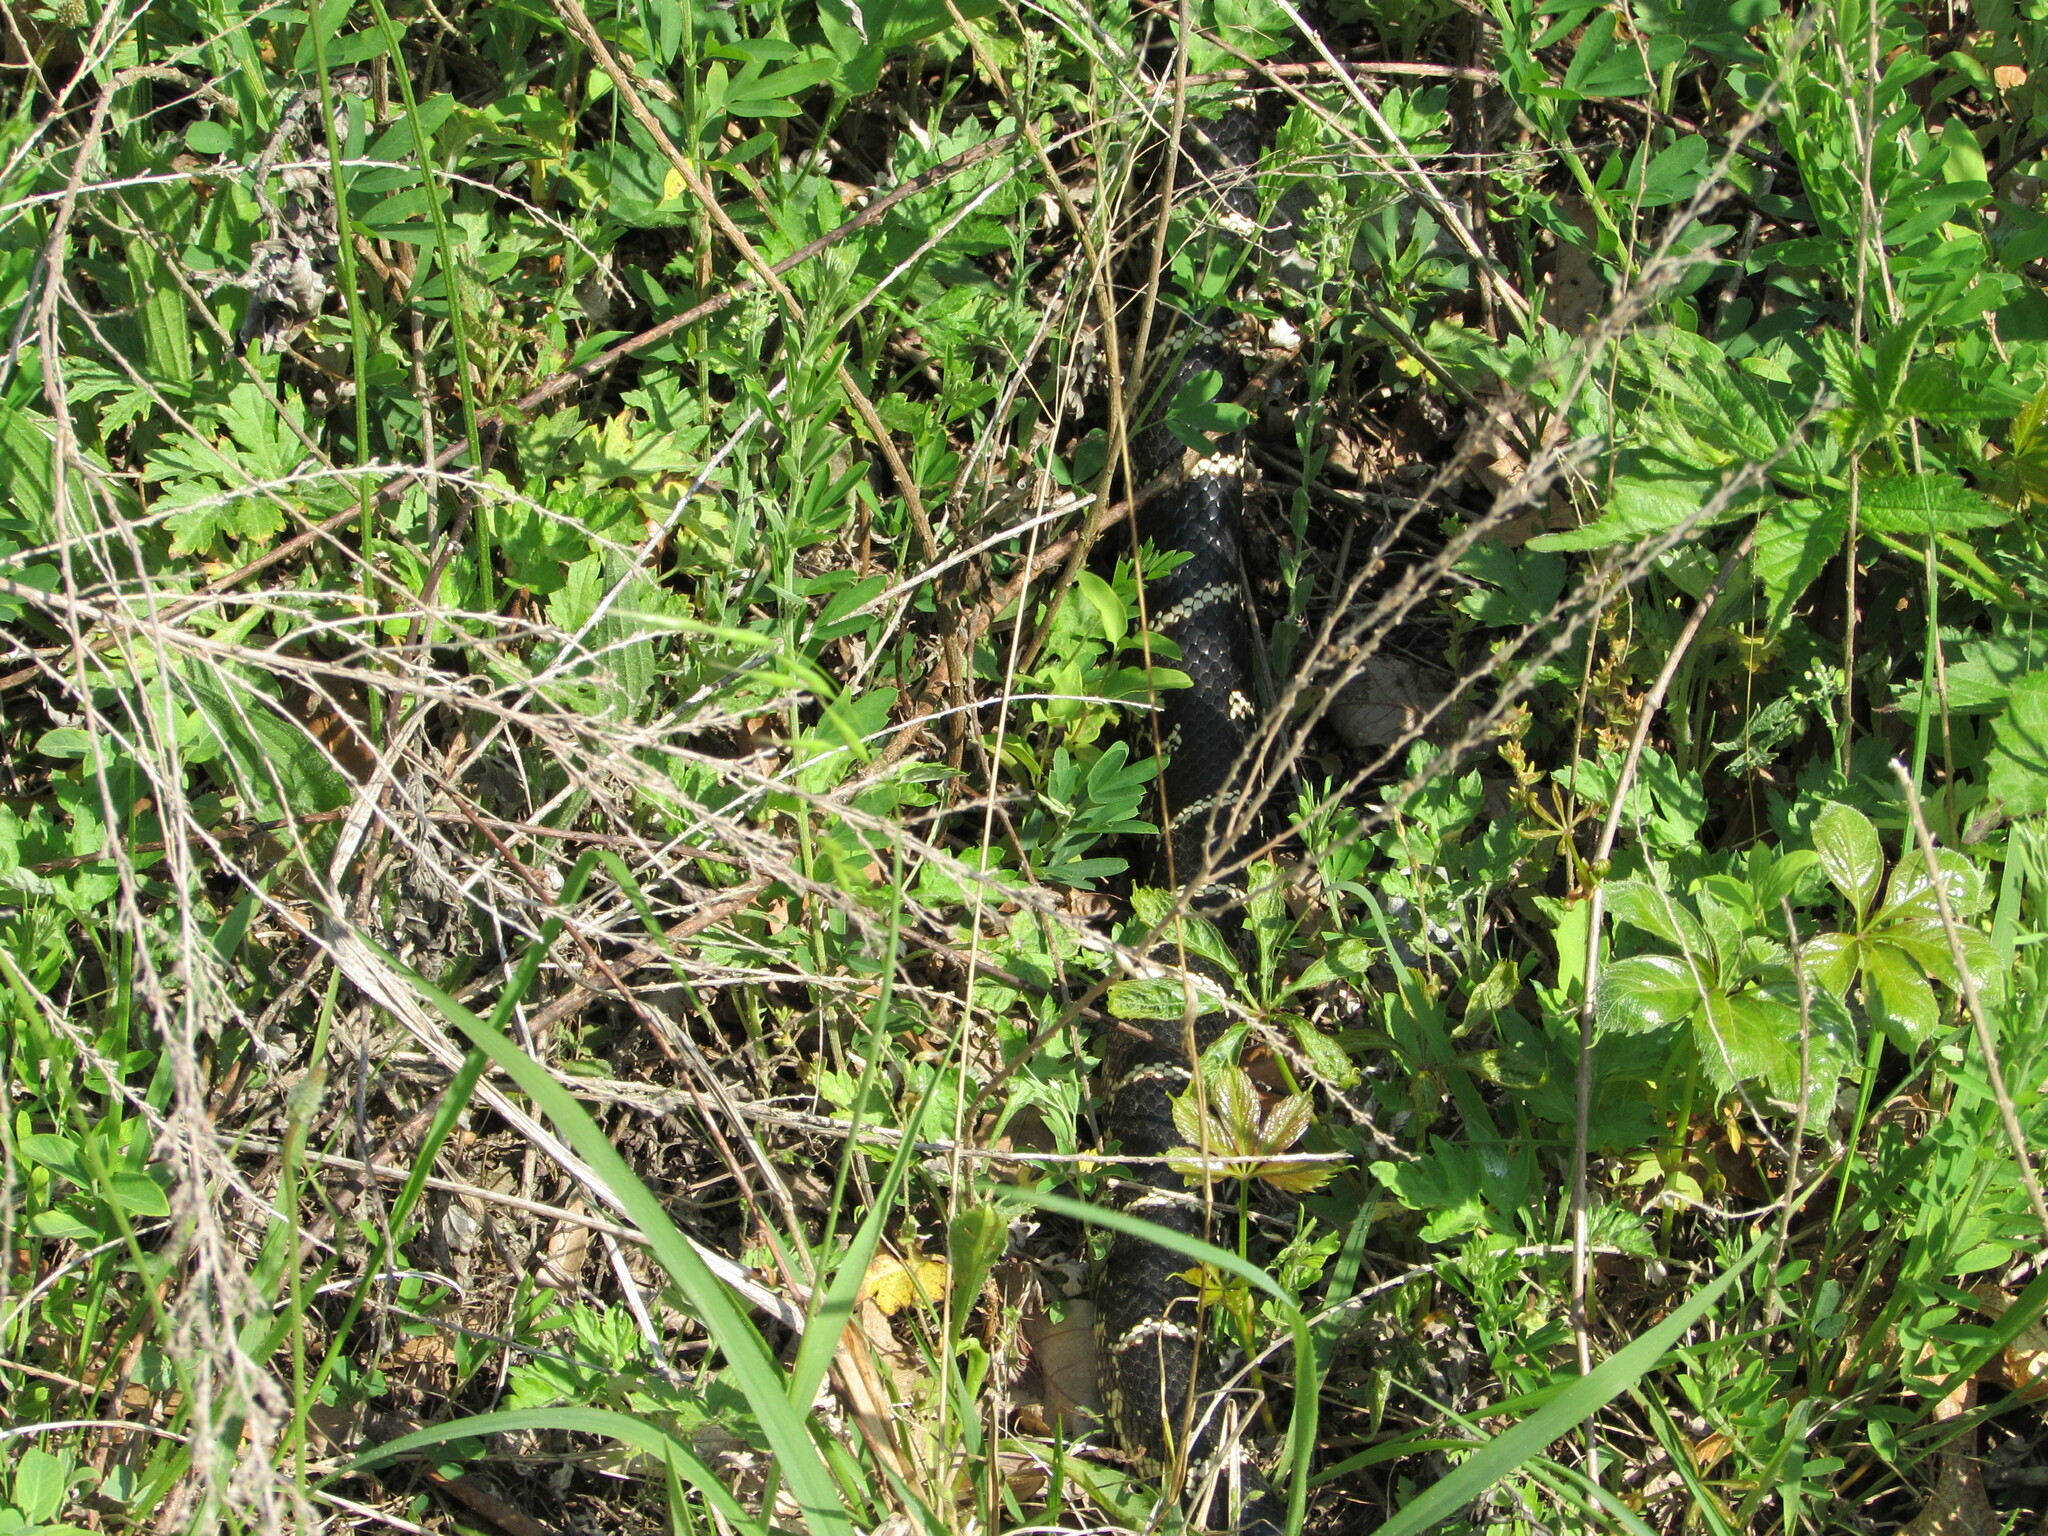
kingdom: Animalia
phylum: Chordata
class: Squamata
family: Colubridae
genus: Lampropeltis
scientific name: Lampropeltis getula
